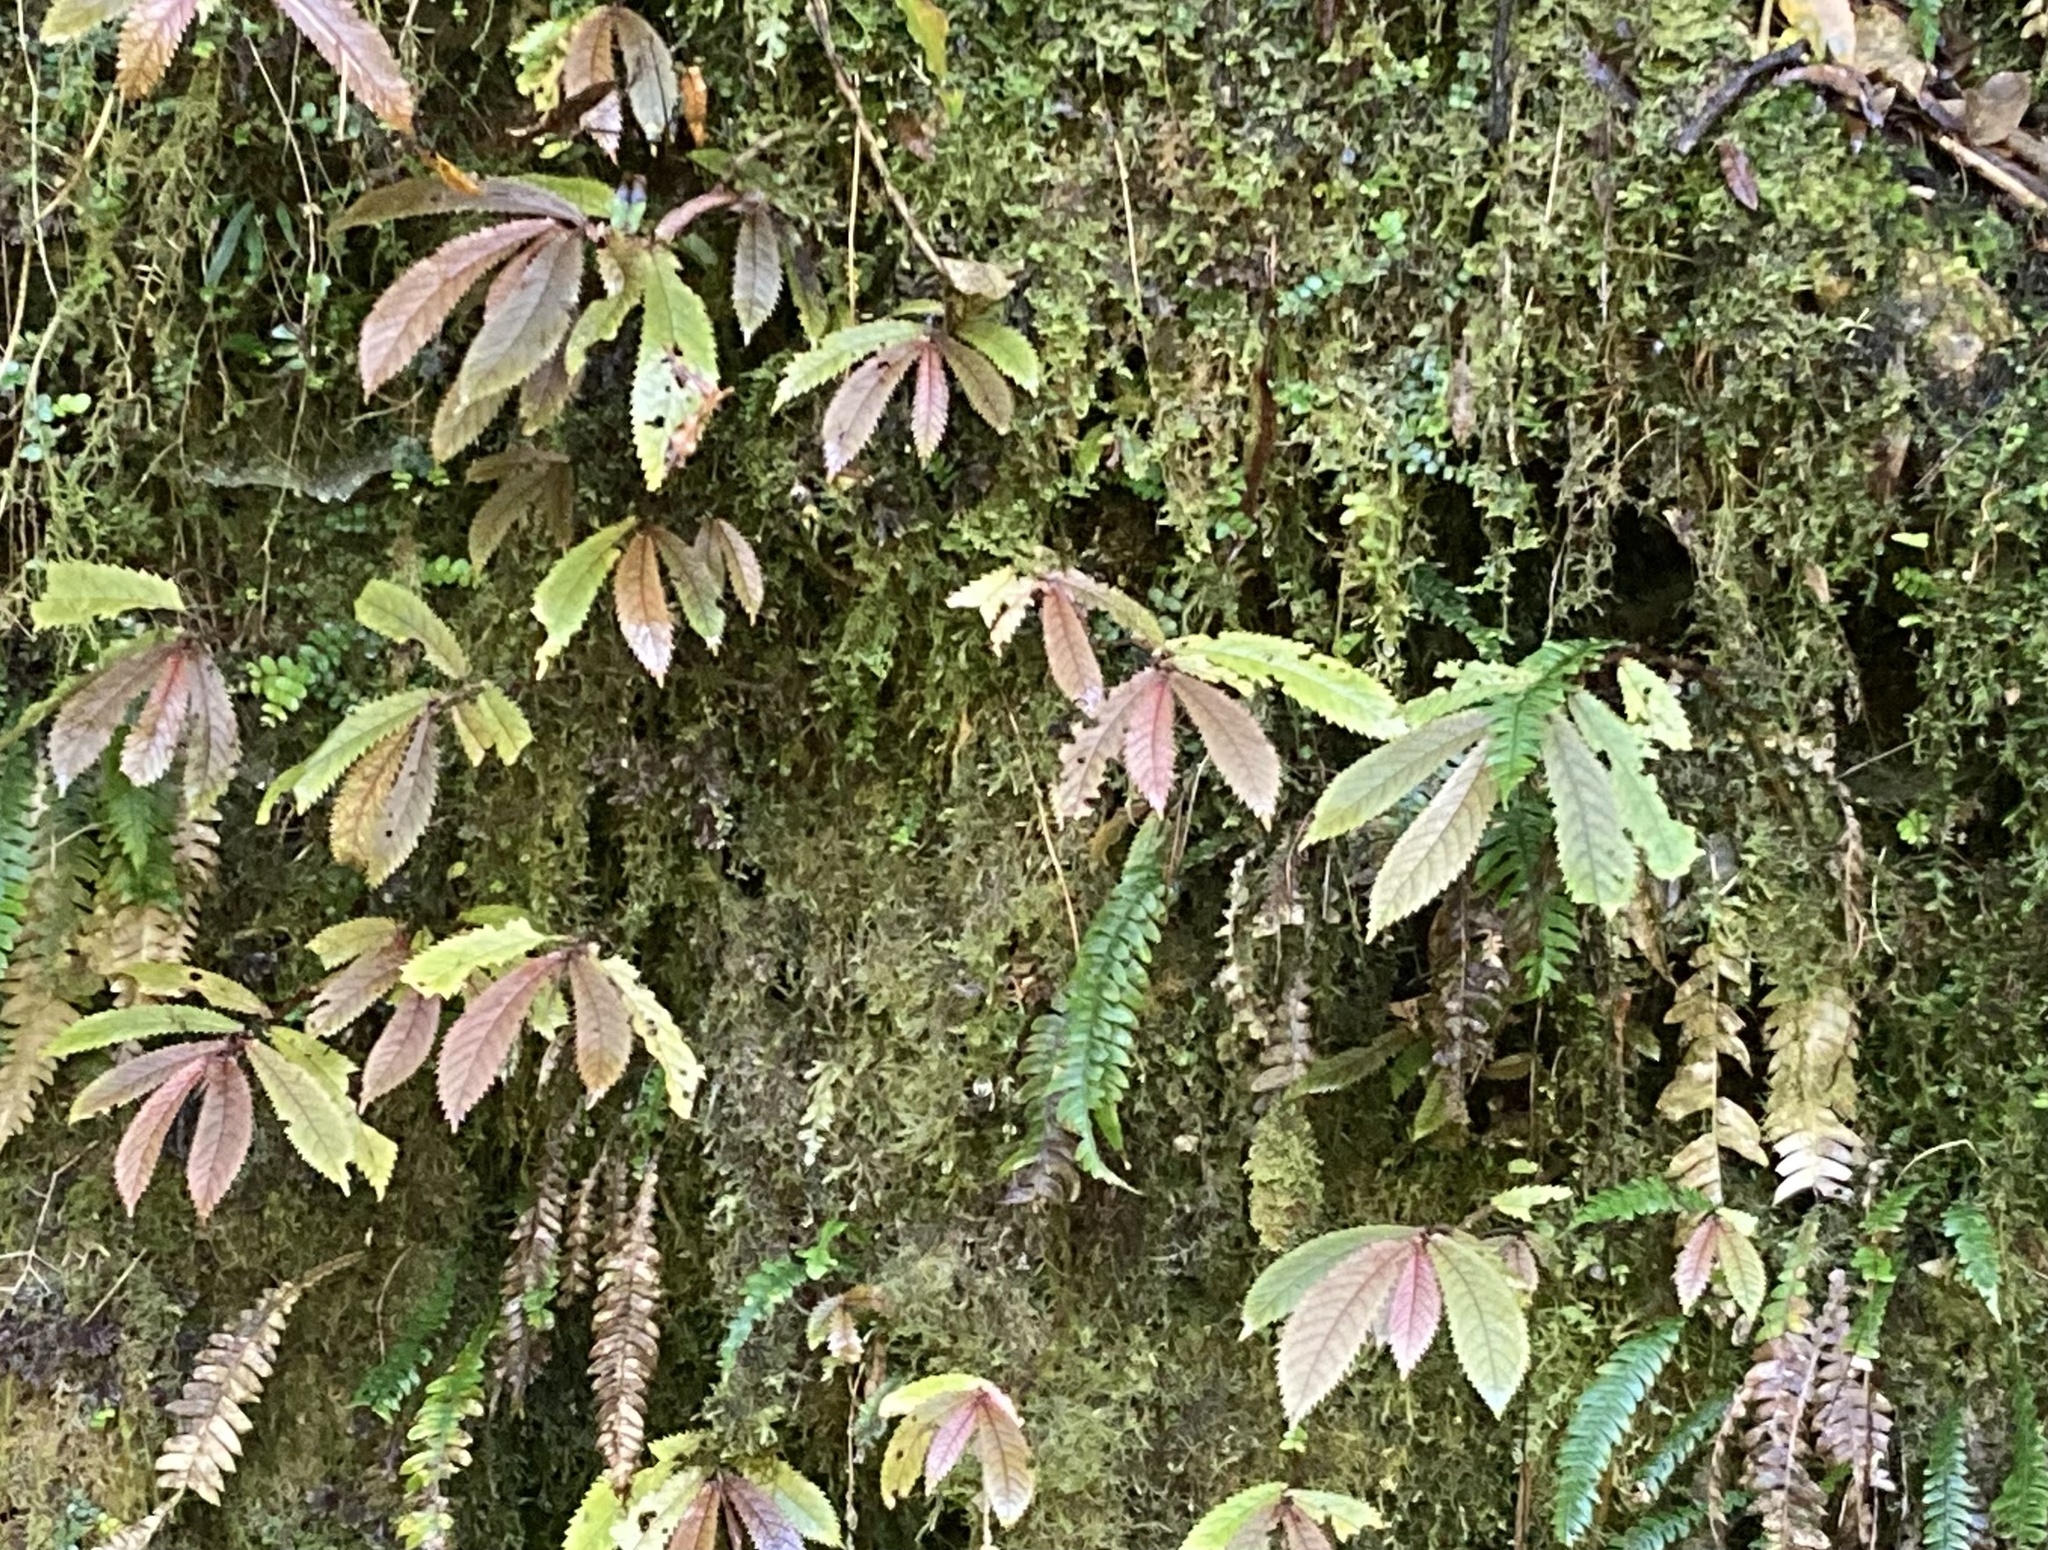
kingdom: Plantae
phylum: Tracheophyta
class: Magnoliopsida
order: Rosales
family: Urticaceae
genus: Elatostema
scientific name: Elatostema rugosum
